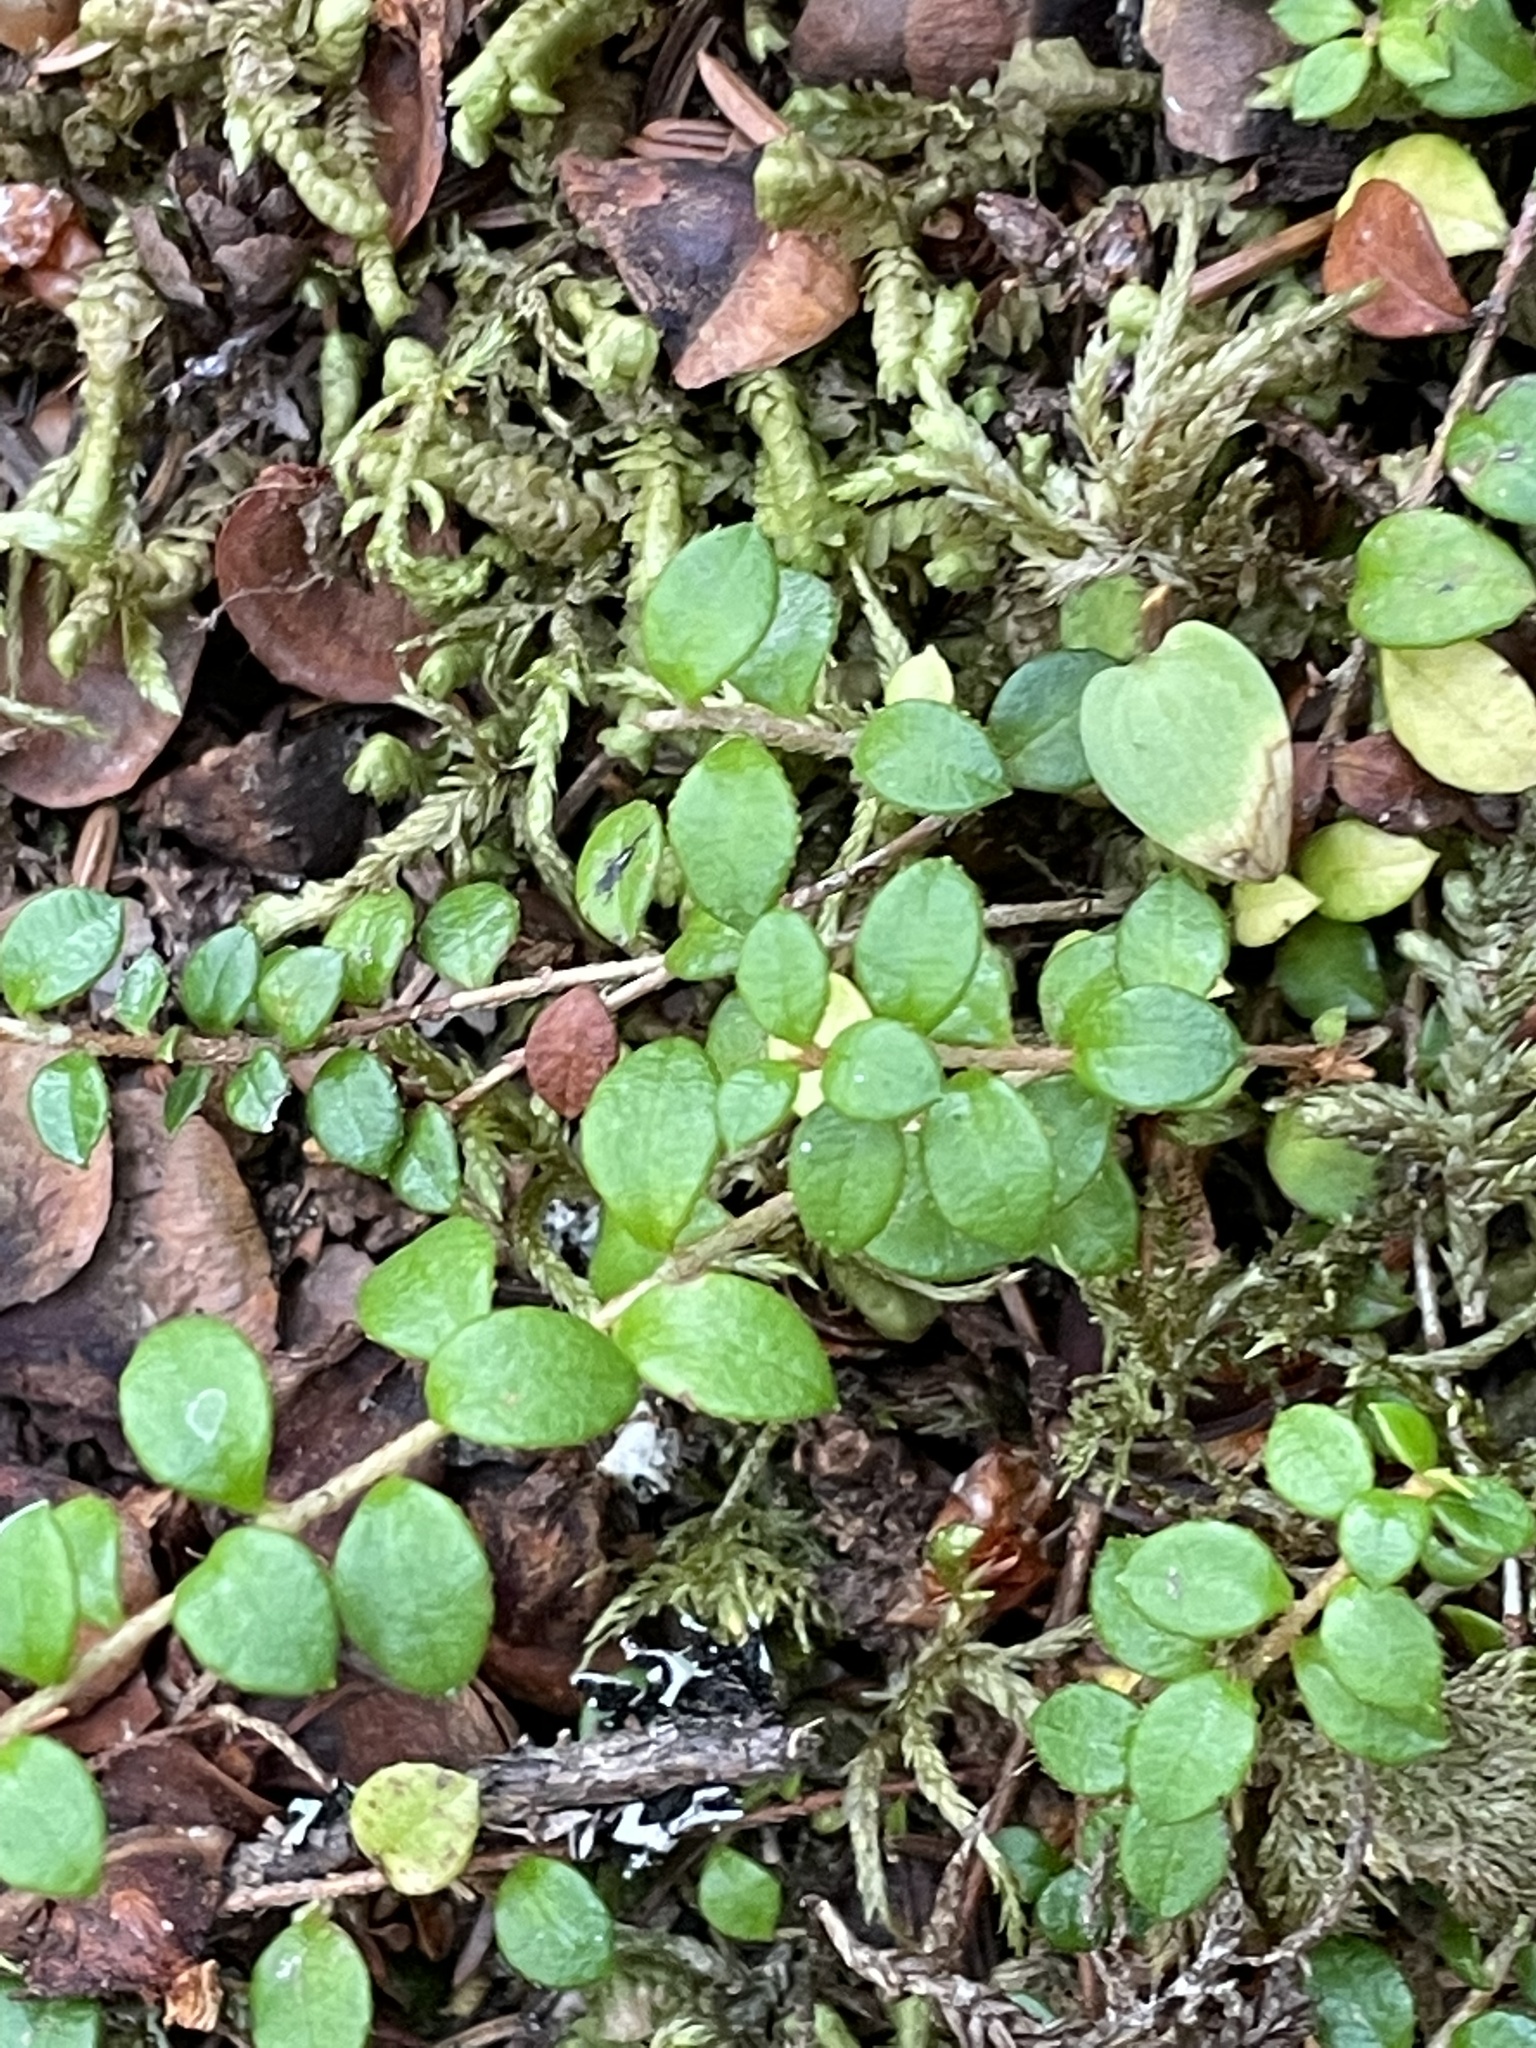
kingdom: Plantae
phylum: Tracheophyta
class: Magnoliopsida
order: Ericales
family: Ericaceae
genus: Gaultheria
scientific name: Gaultheria hispidula
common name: Cancer wintergreen
